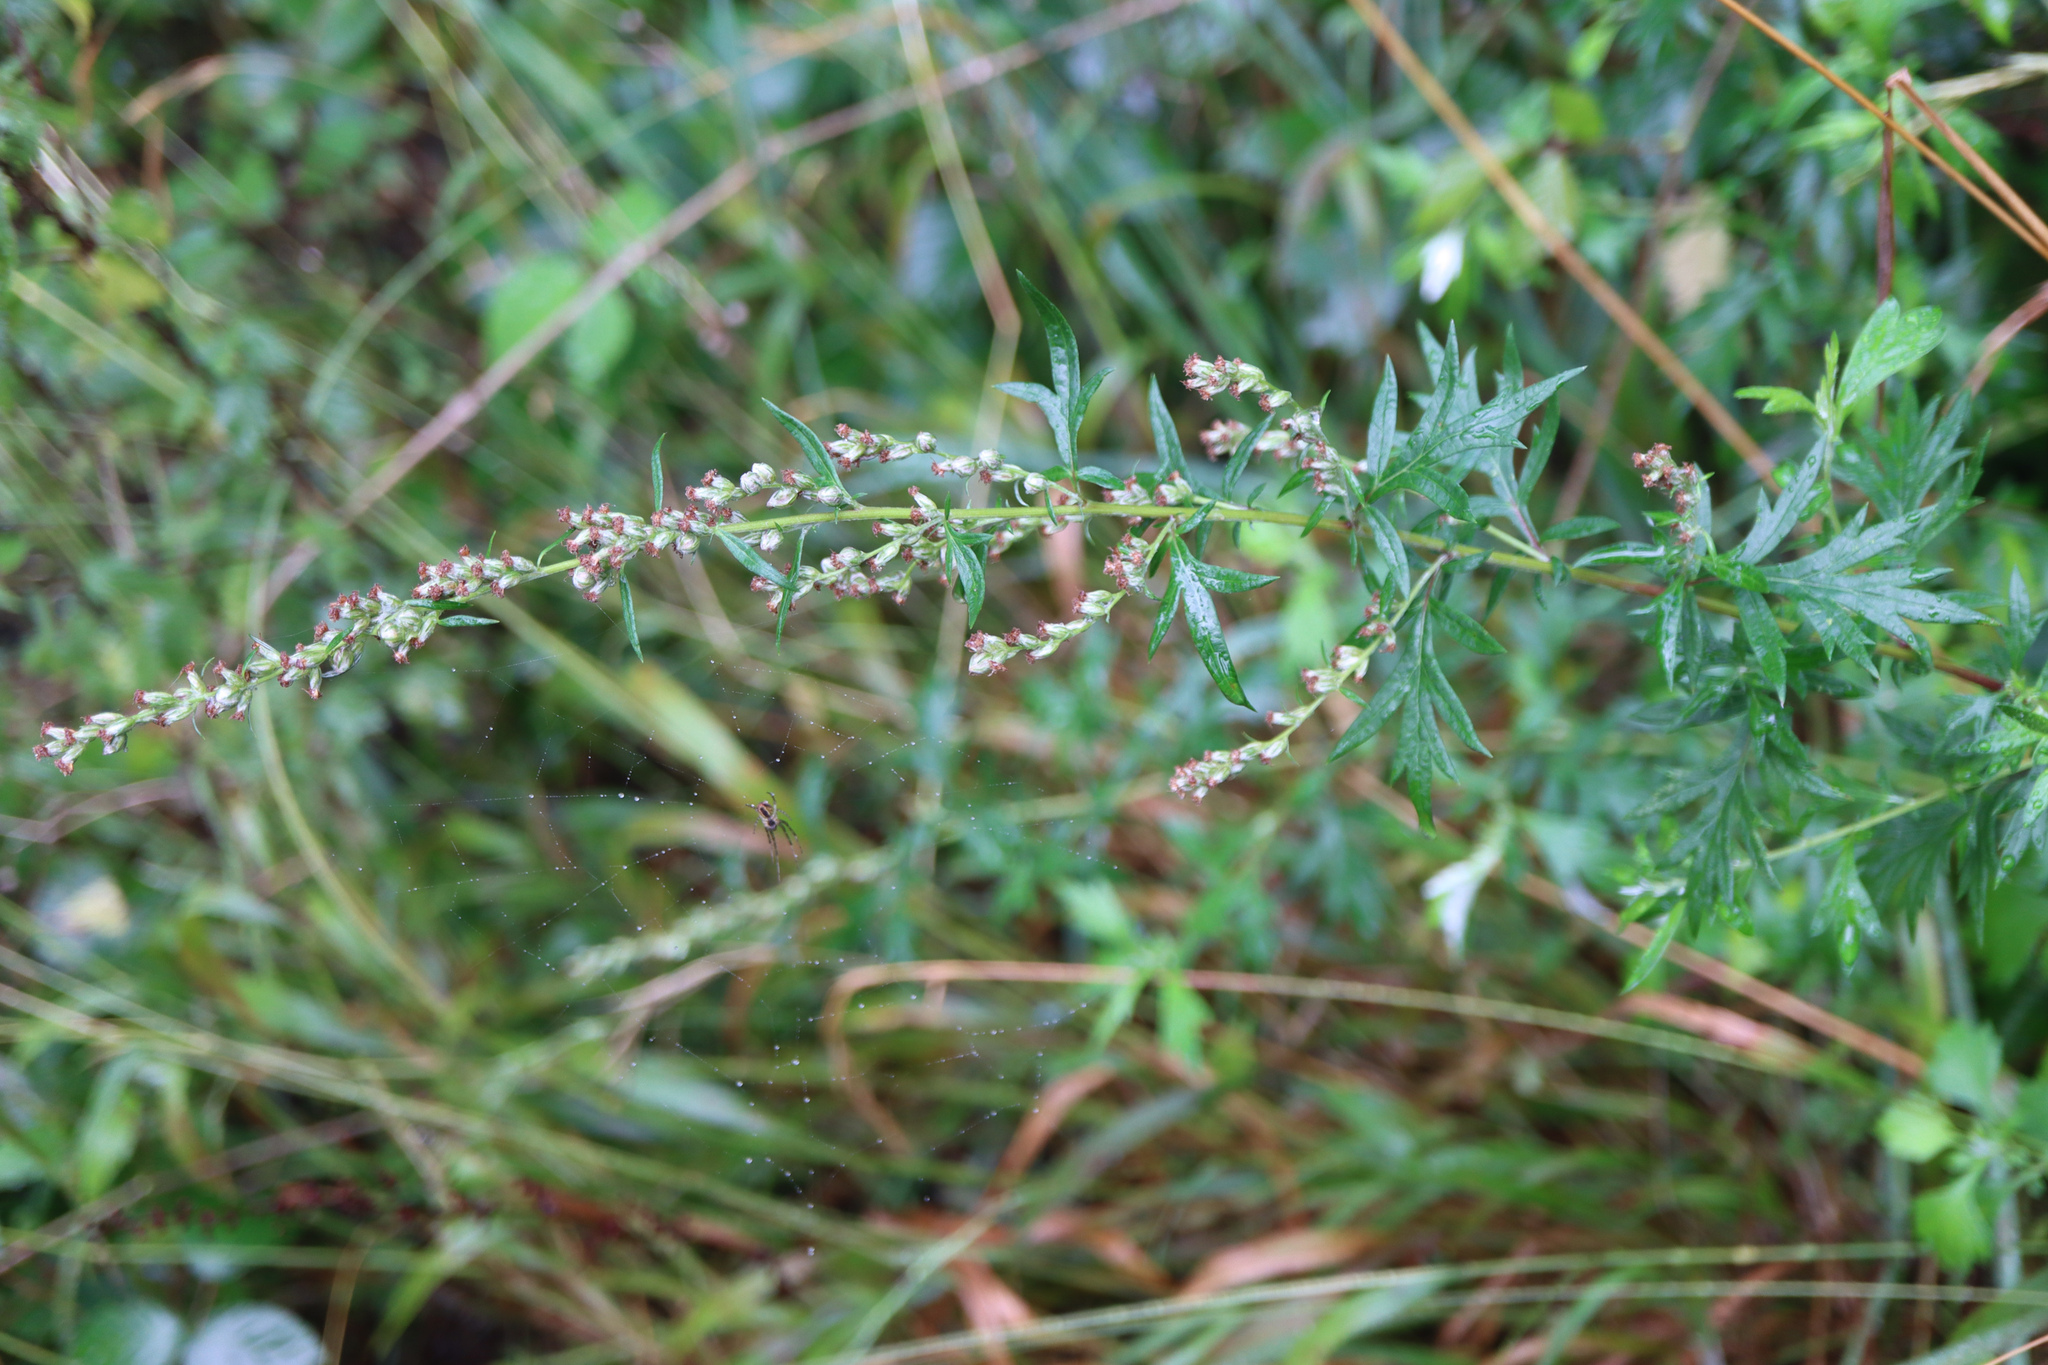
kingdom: Plantae
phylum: Tracheophyta
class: Magnoliopsida
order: Asterales
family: Asteraceae
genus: Artemisia
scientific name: Artemisia vulgaris
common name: Mugwort
